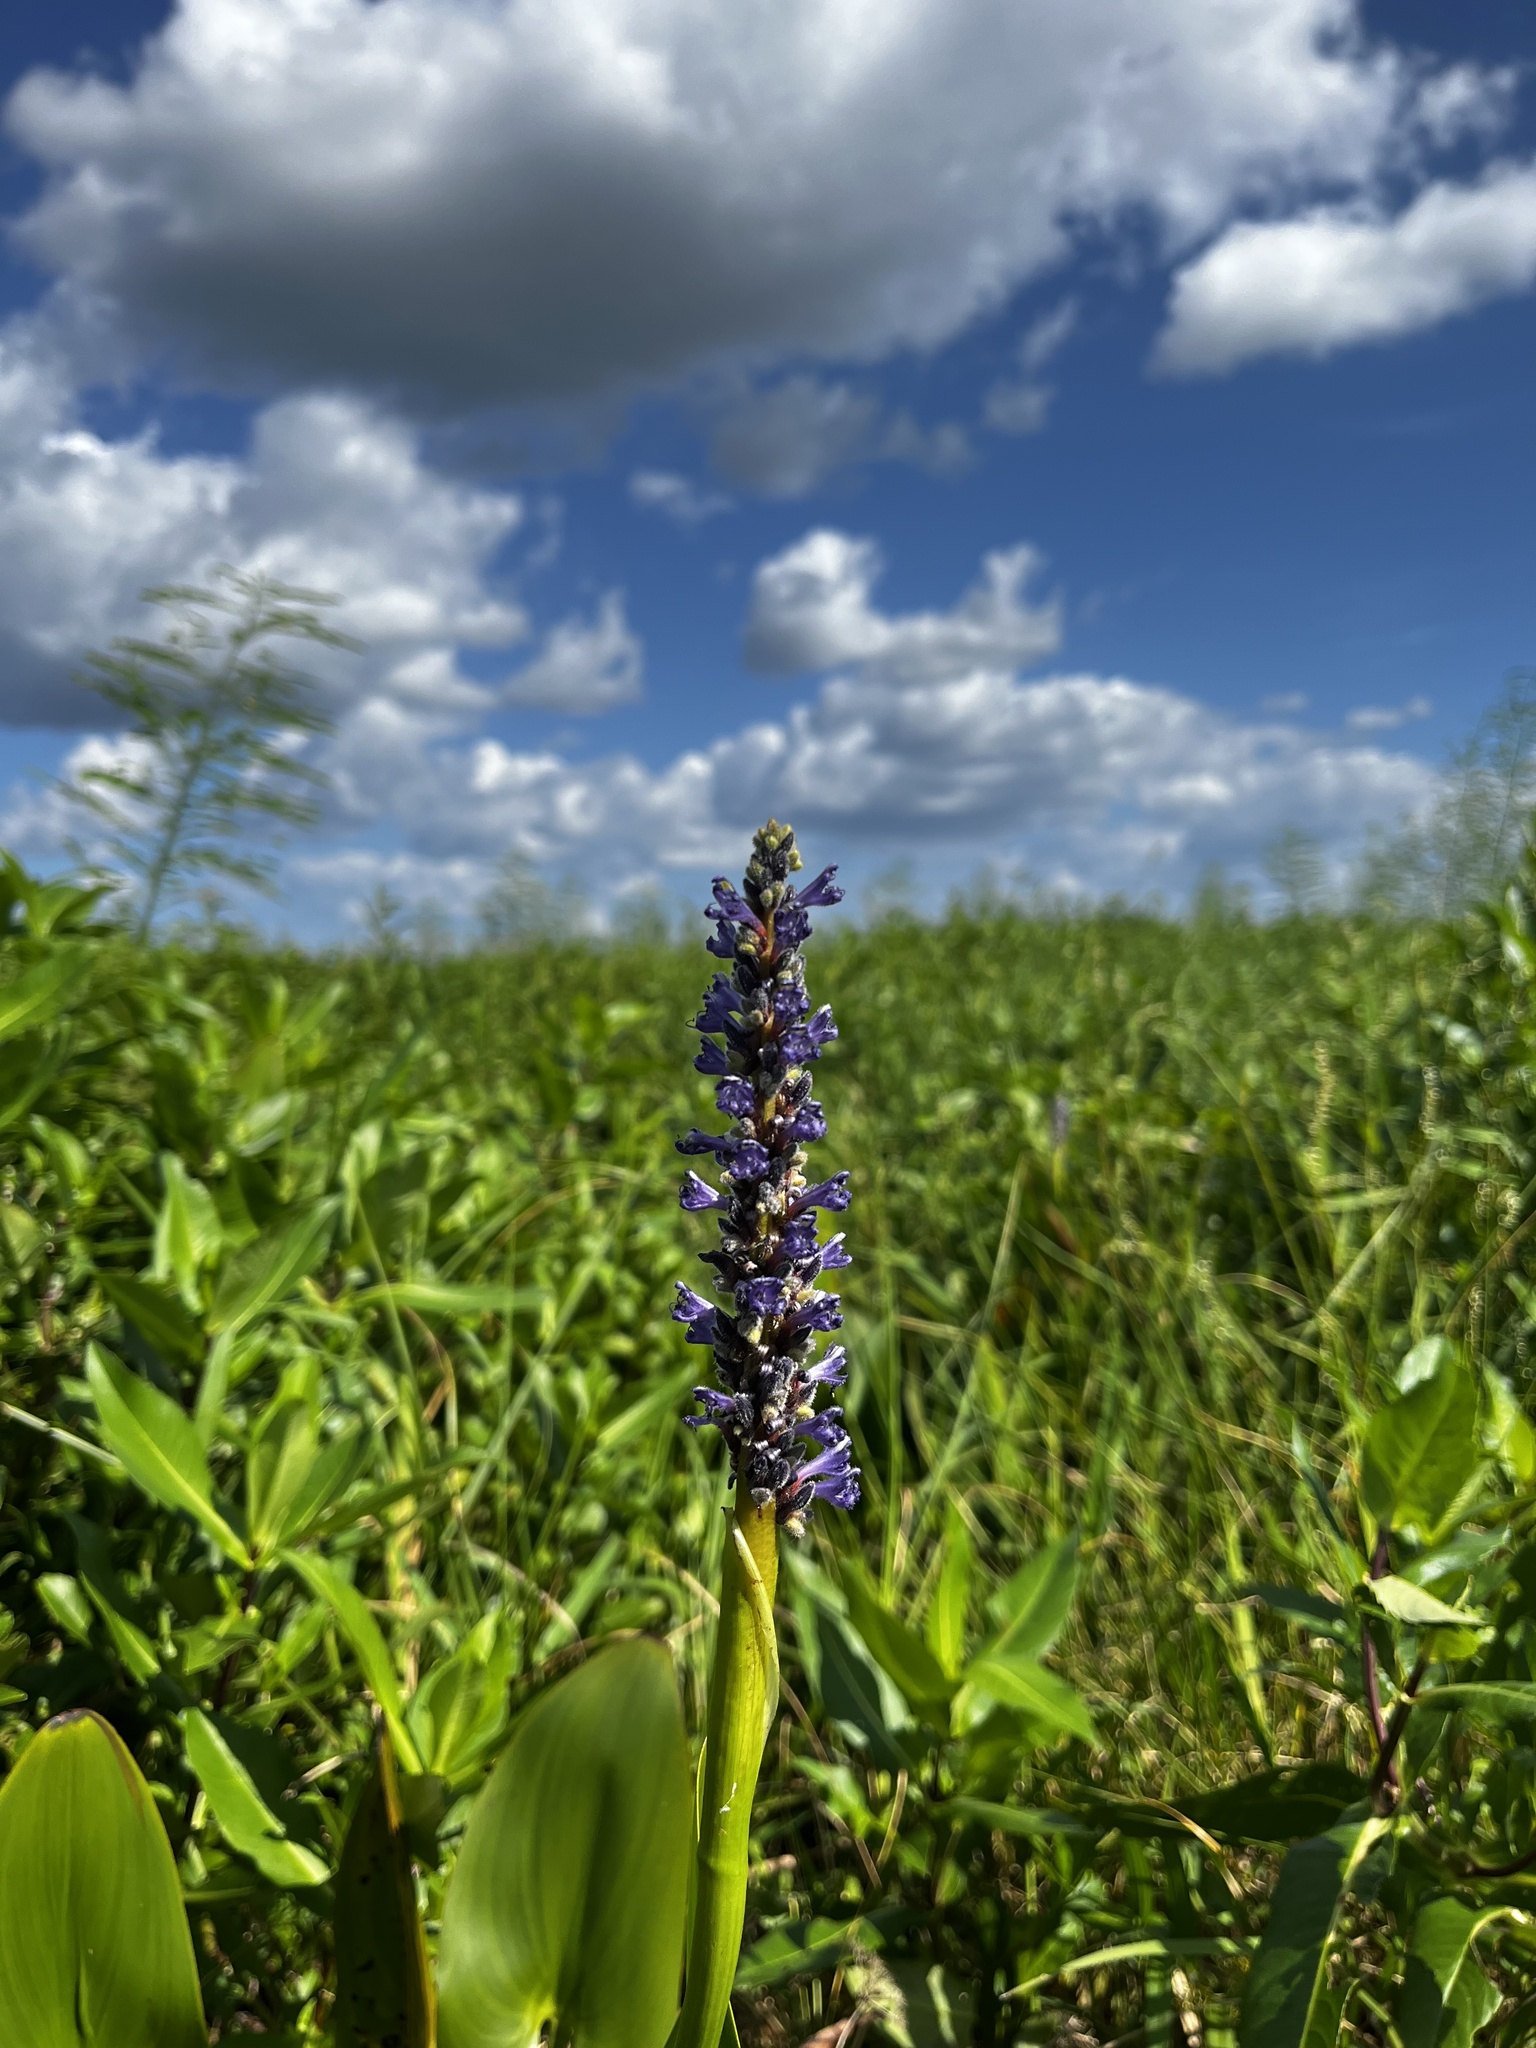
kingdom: Plantae
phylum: Tracheophyta
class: Liliopsida
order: Commelinales
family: Pontederiaceae
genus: Pontederia
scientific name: Pontederia cordata
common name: Pickerelweed
